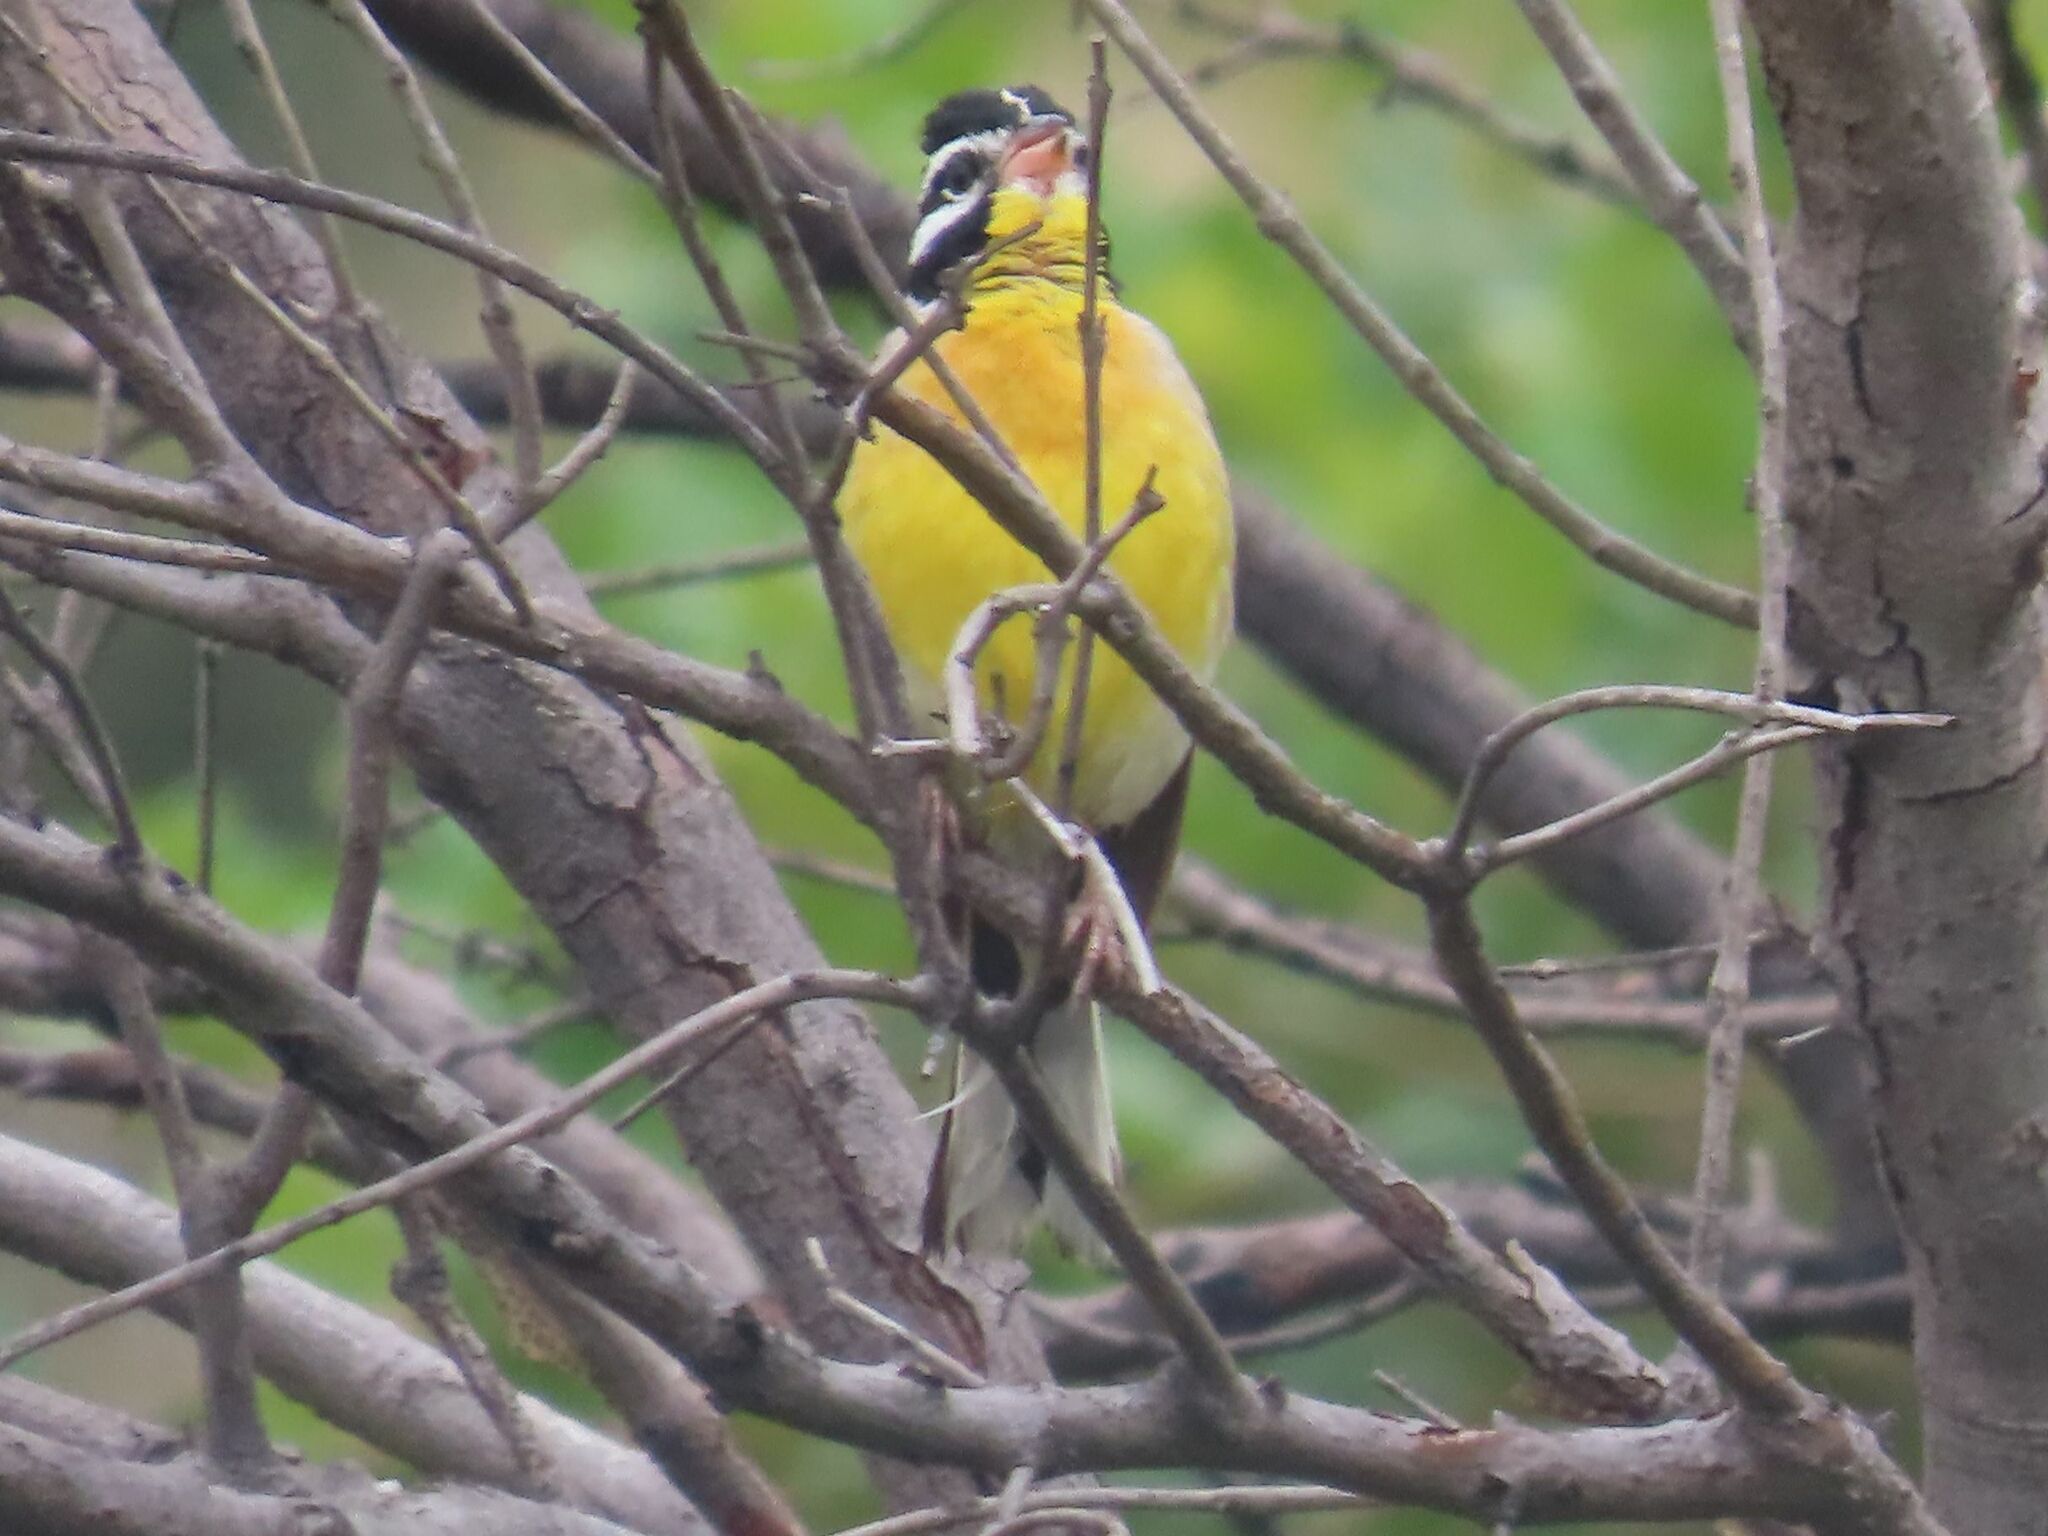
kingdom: Animalia
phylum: Chordata
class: Aves
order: Passeriformes
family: Emberizidae
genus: Emberiza
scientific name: Emberiza flaviventris
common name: Golden-breasted bunting
